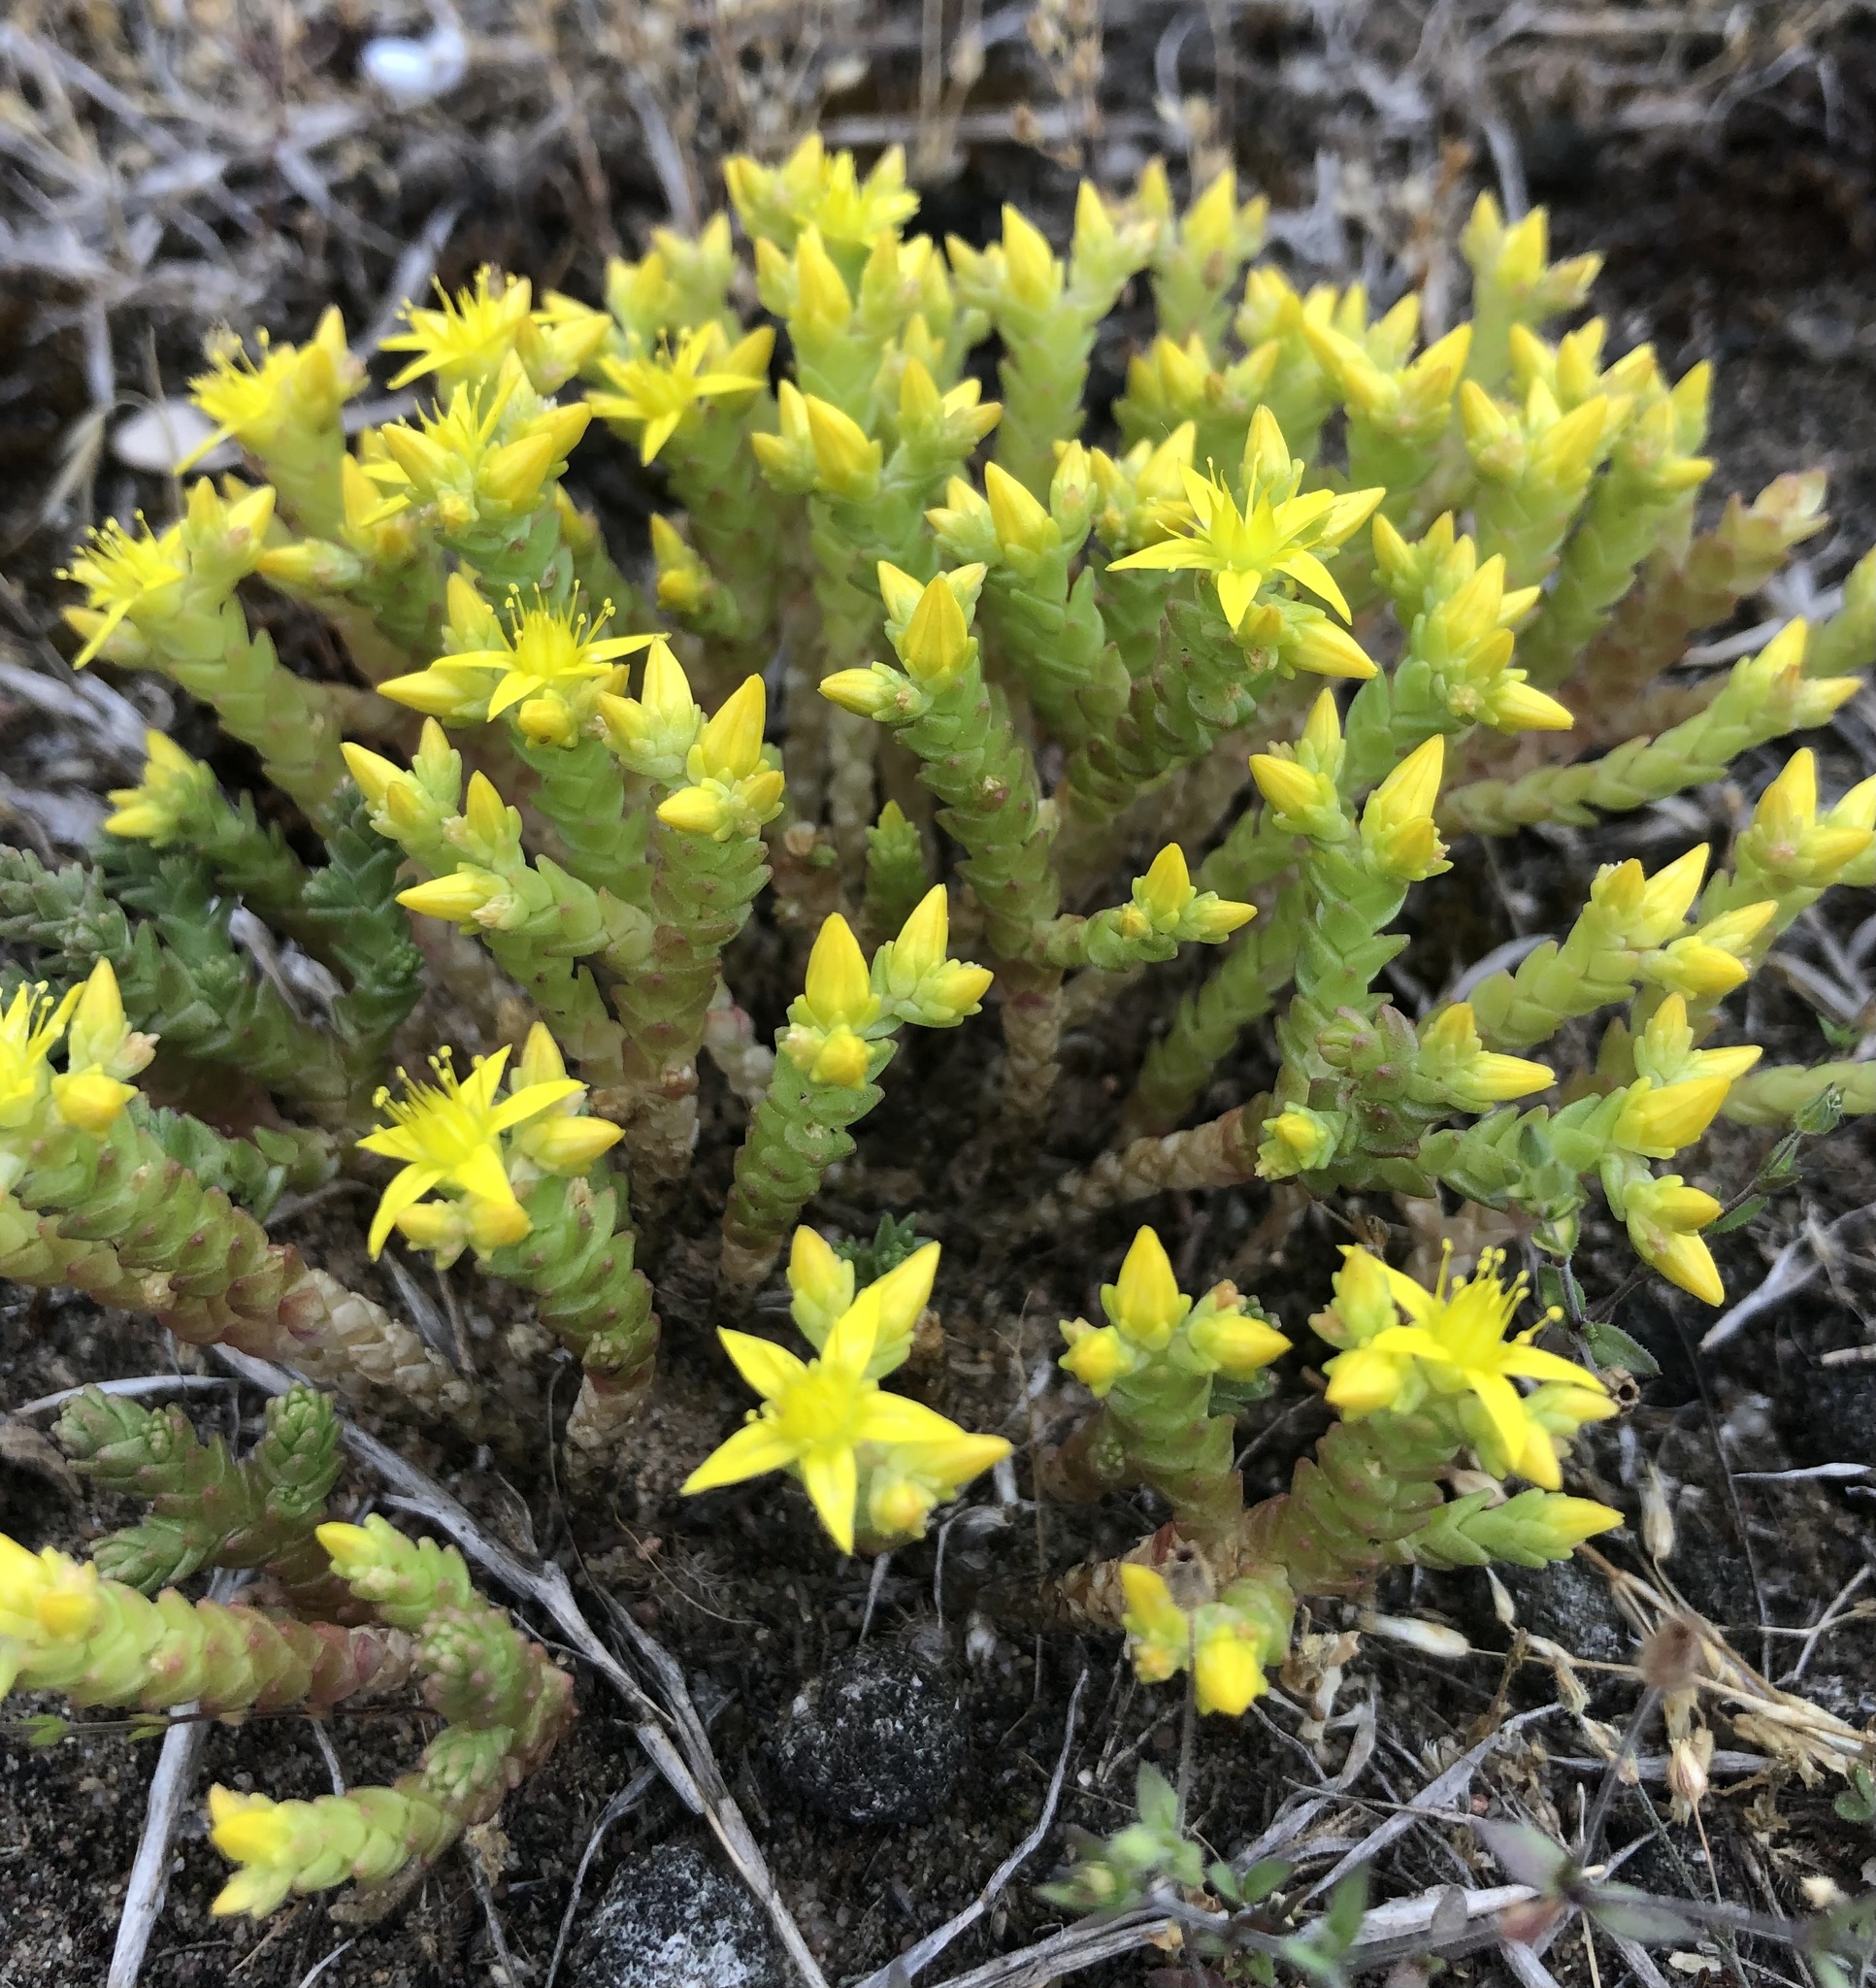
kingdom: Plantae
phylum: Tracheophyta
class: Magnoliopsida
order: Saxifragales
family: Crassulaceae
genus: Sedum
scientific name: Sedum acre
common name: Biting stonecrop
